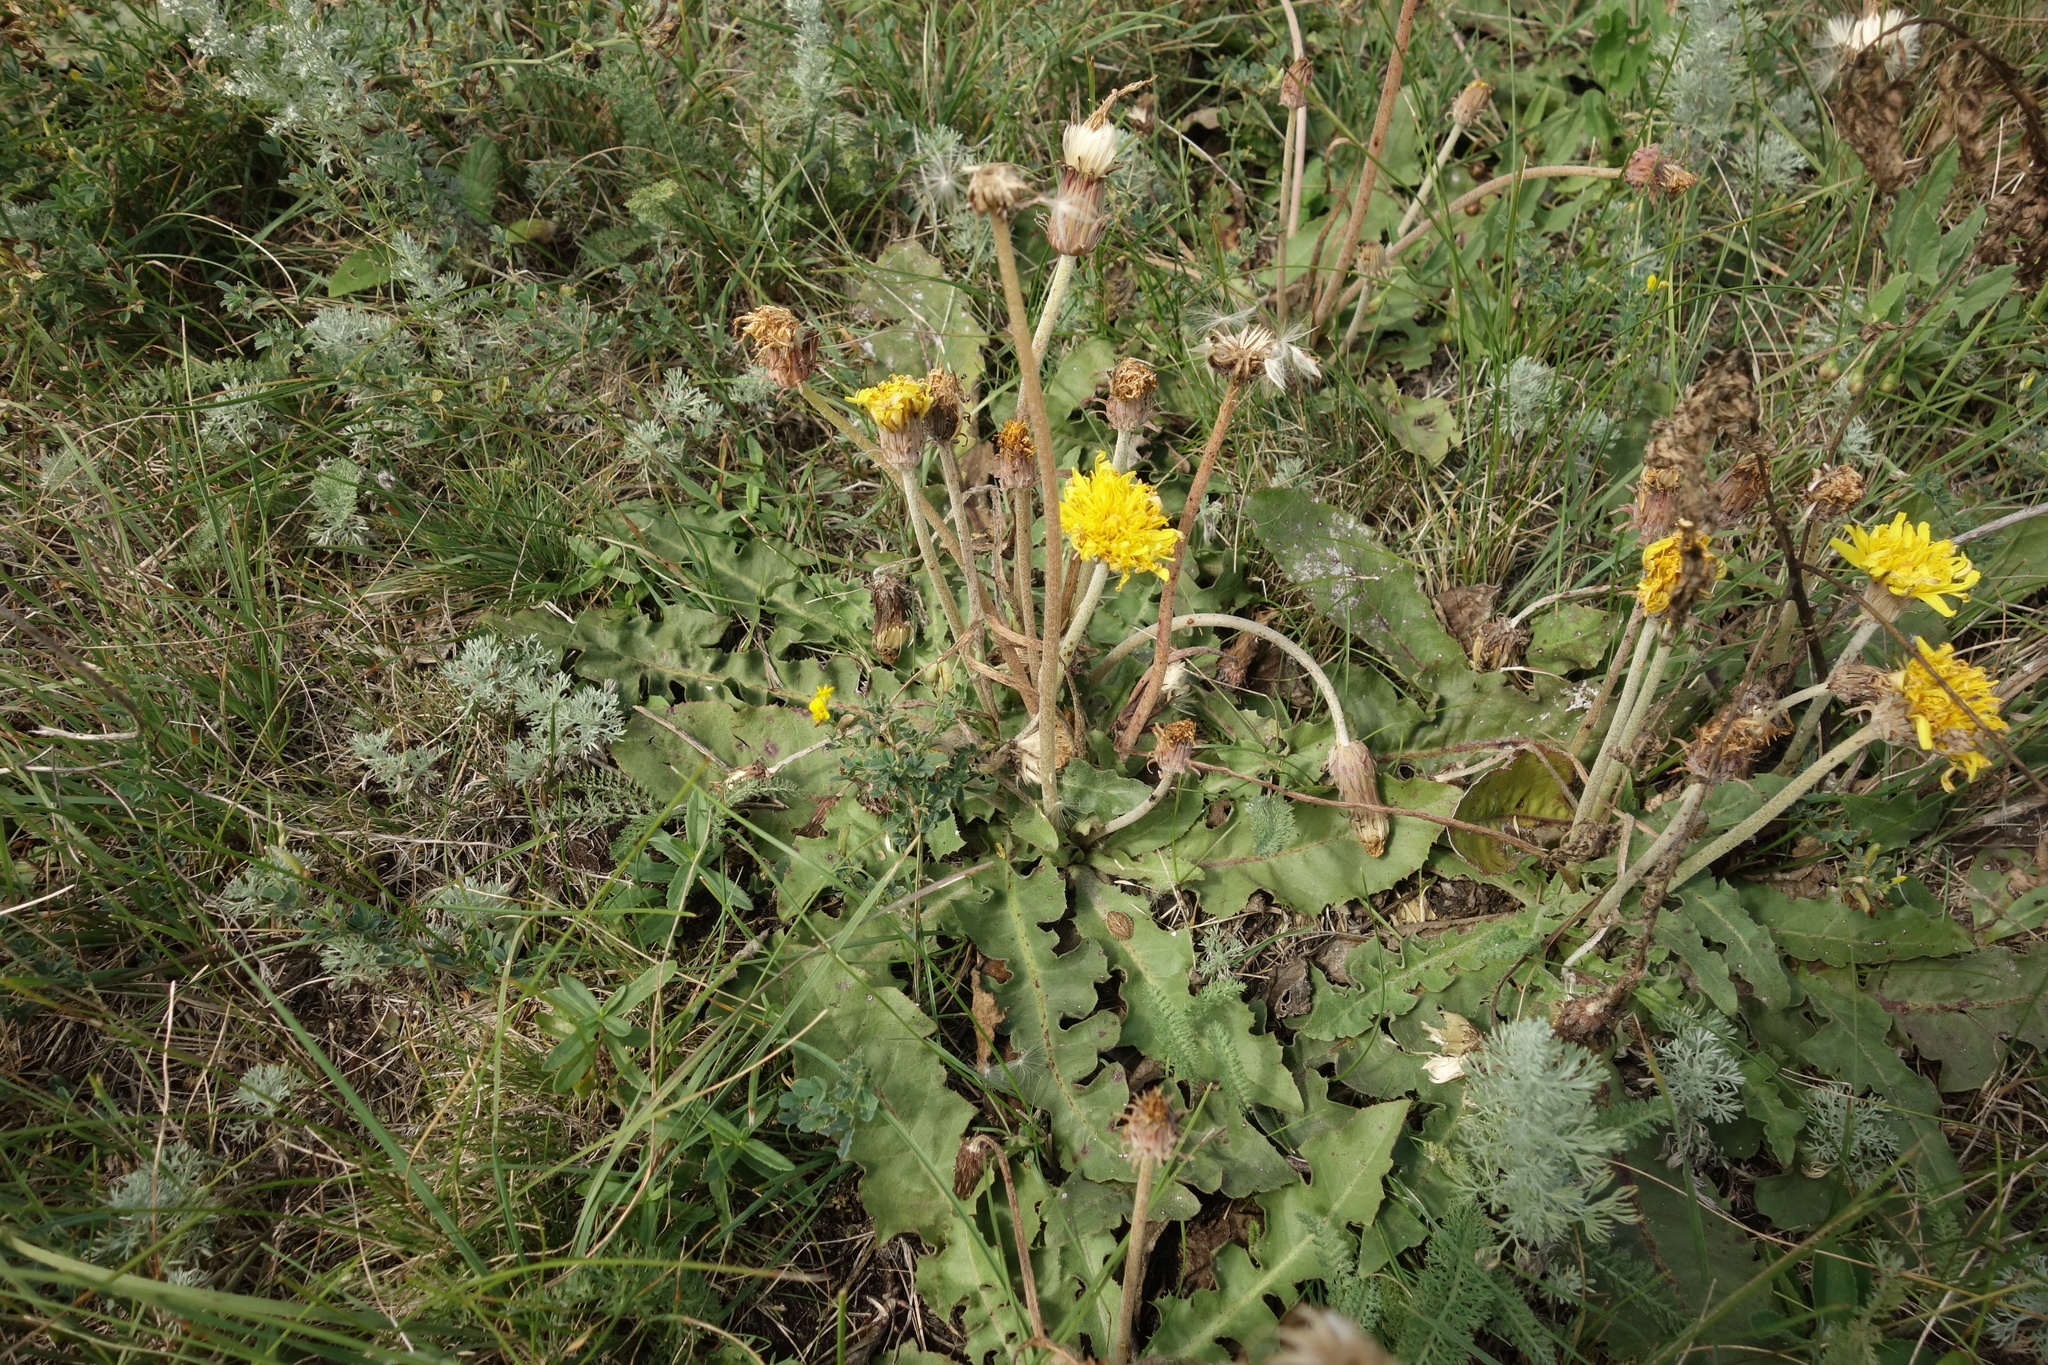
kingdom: Plantae
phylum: Tracheophyta
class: Magnoliopsida
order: Asterales
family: Asteraceae
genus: Taraxacum
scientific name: Taraxacum serotinum
